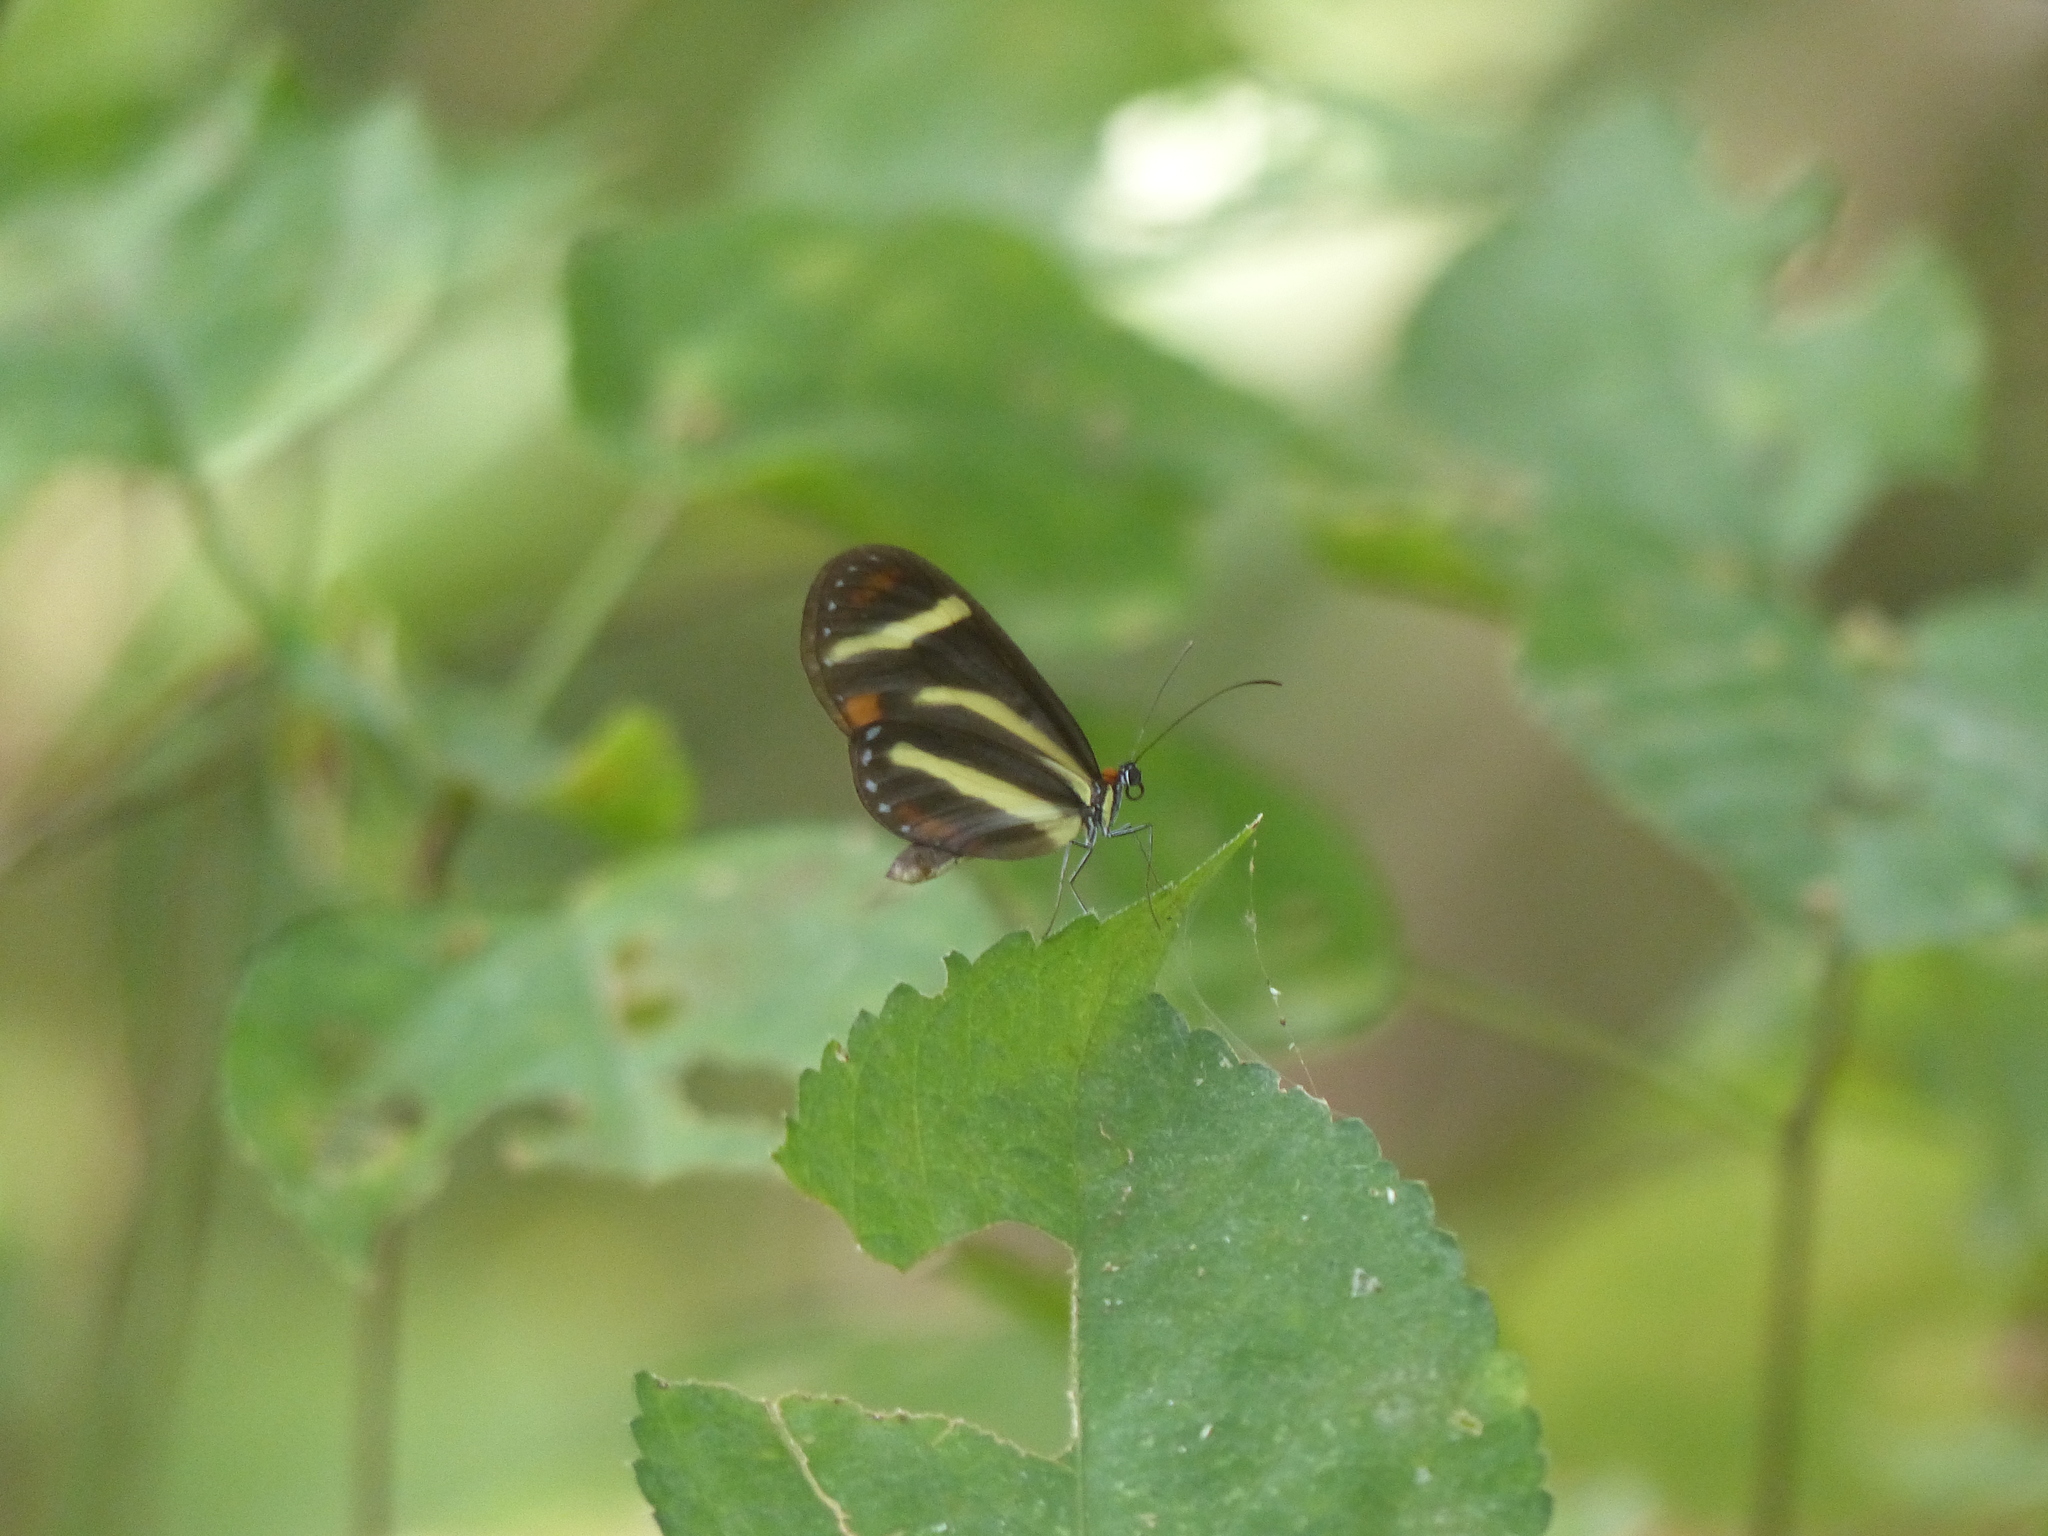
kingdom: Animalia
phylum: Arthropoda
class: Insecta
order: Lepidoptera
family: Nymphalidae
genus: Scada
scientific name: Scada
